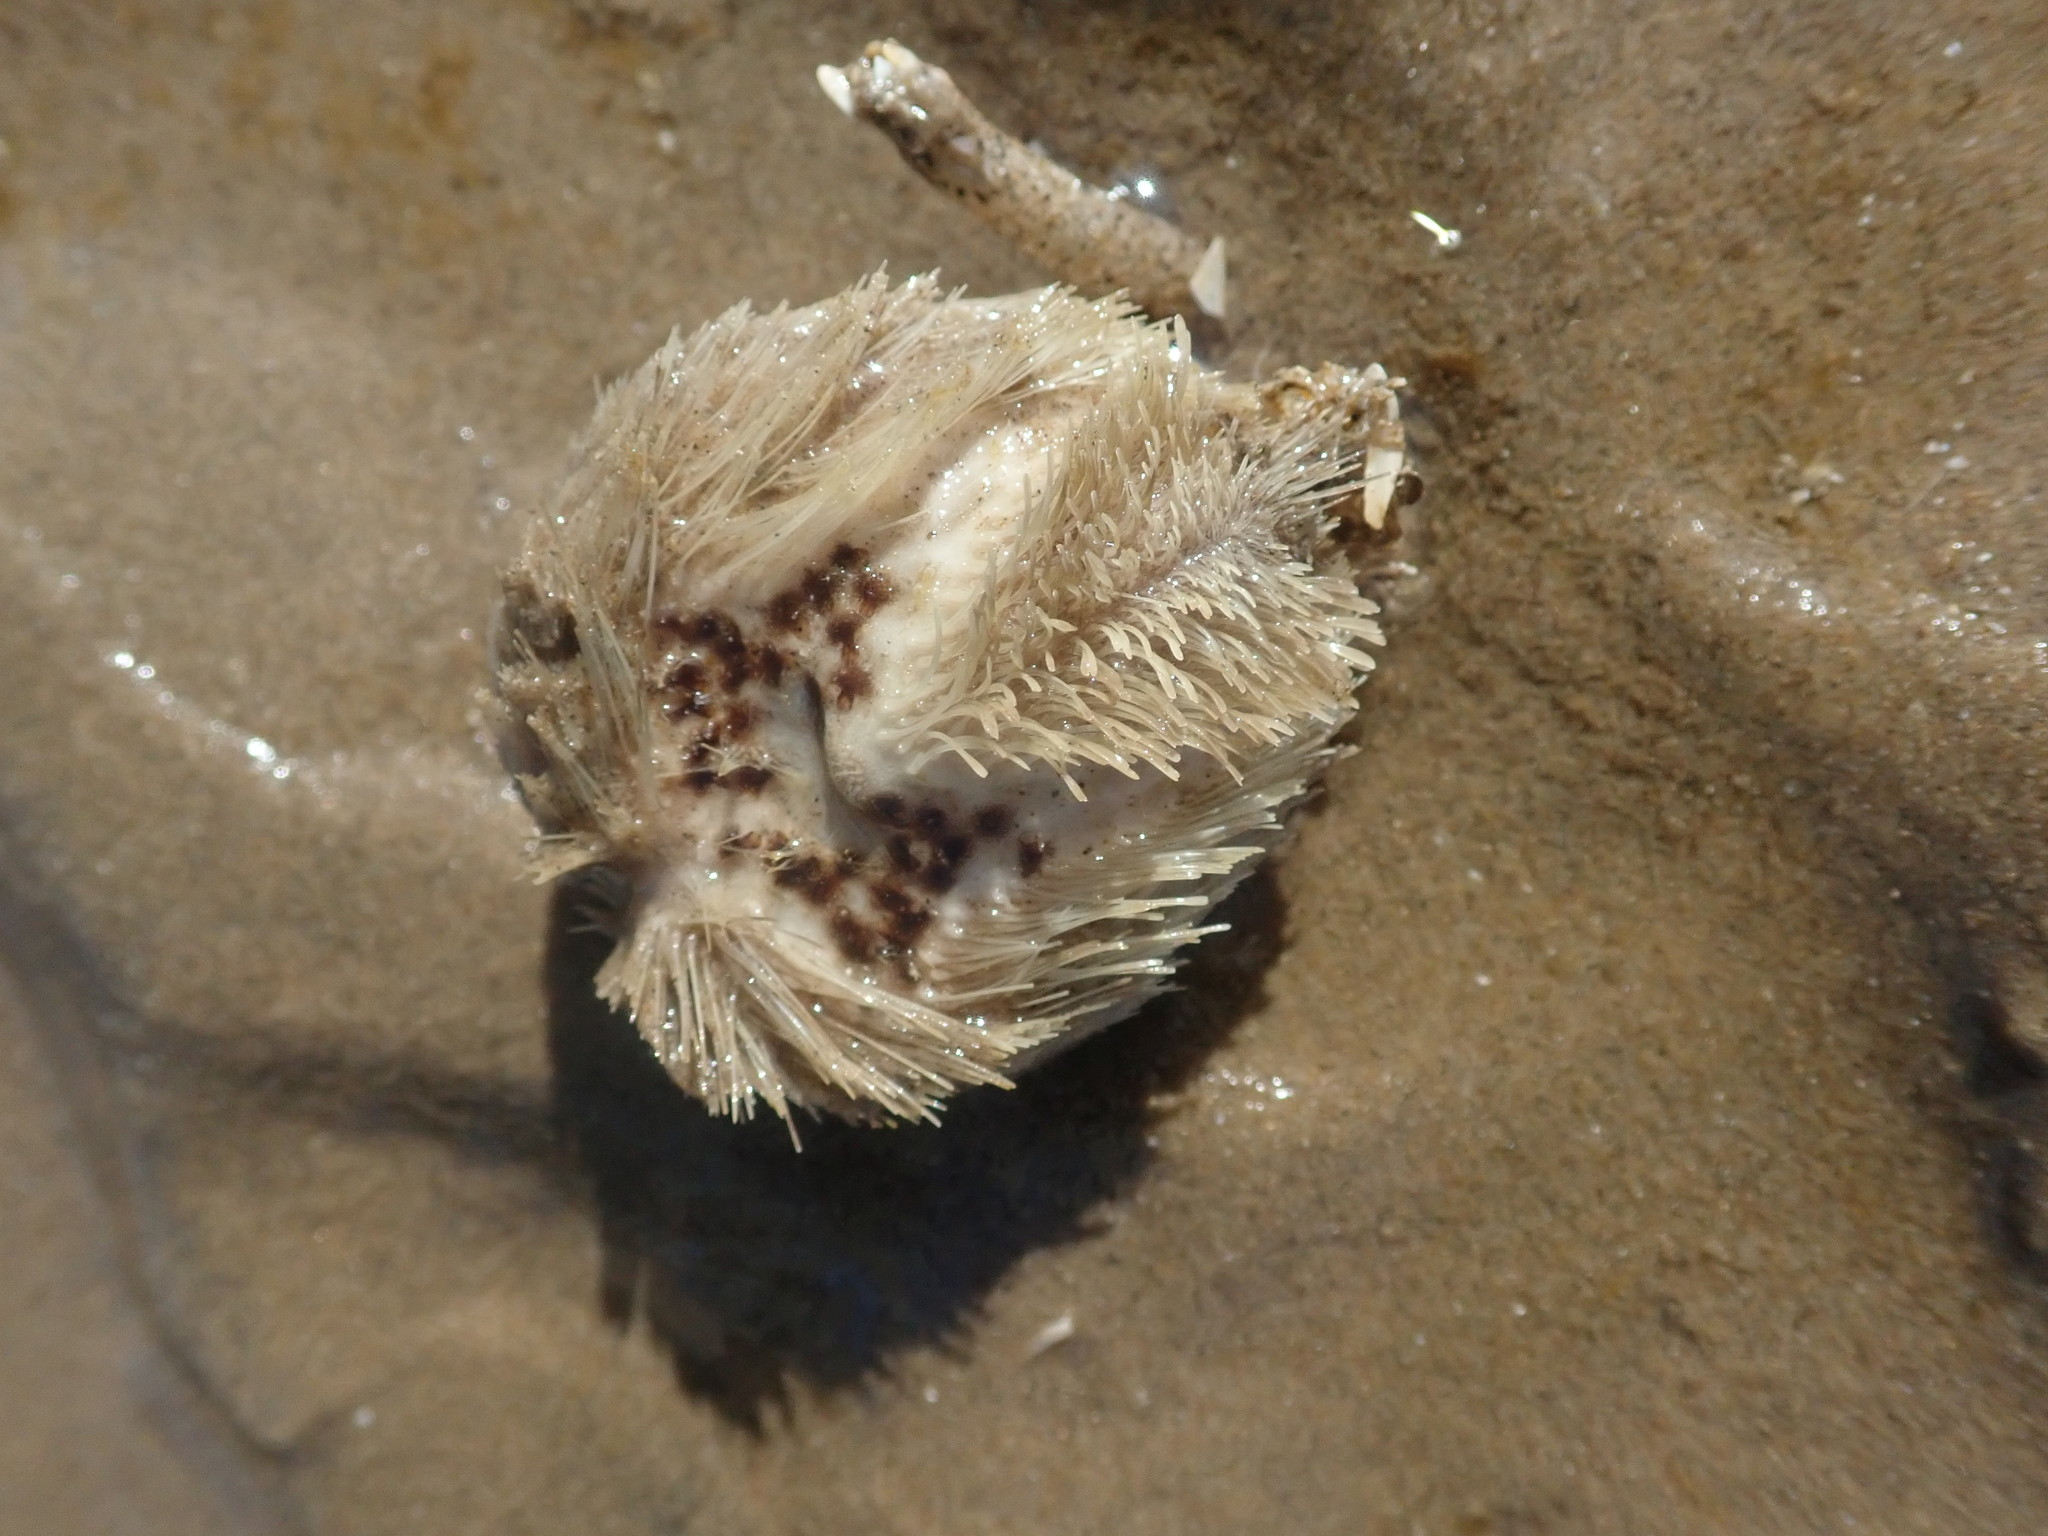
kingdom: Animalia
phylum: Echinodermata
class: Echinoidea
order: Spatangoida
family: Loveniidae
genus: Echinocardium
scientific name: Echinocardium cordatum
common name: Heart-urchin
